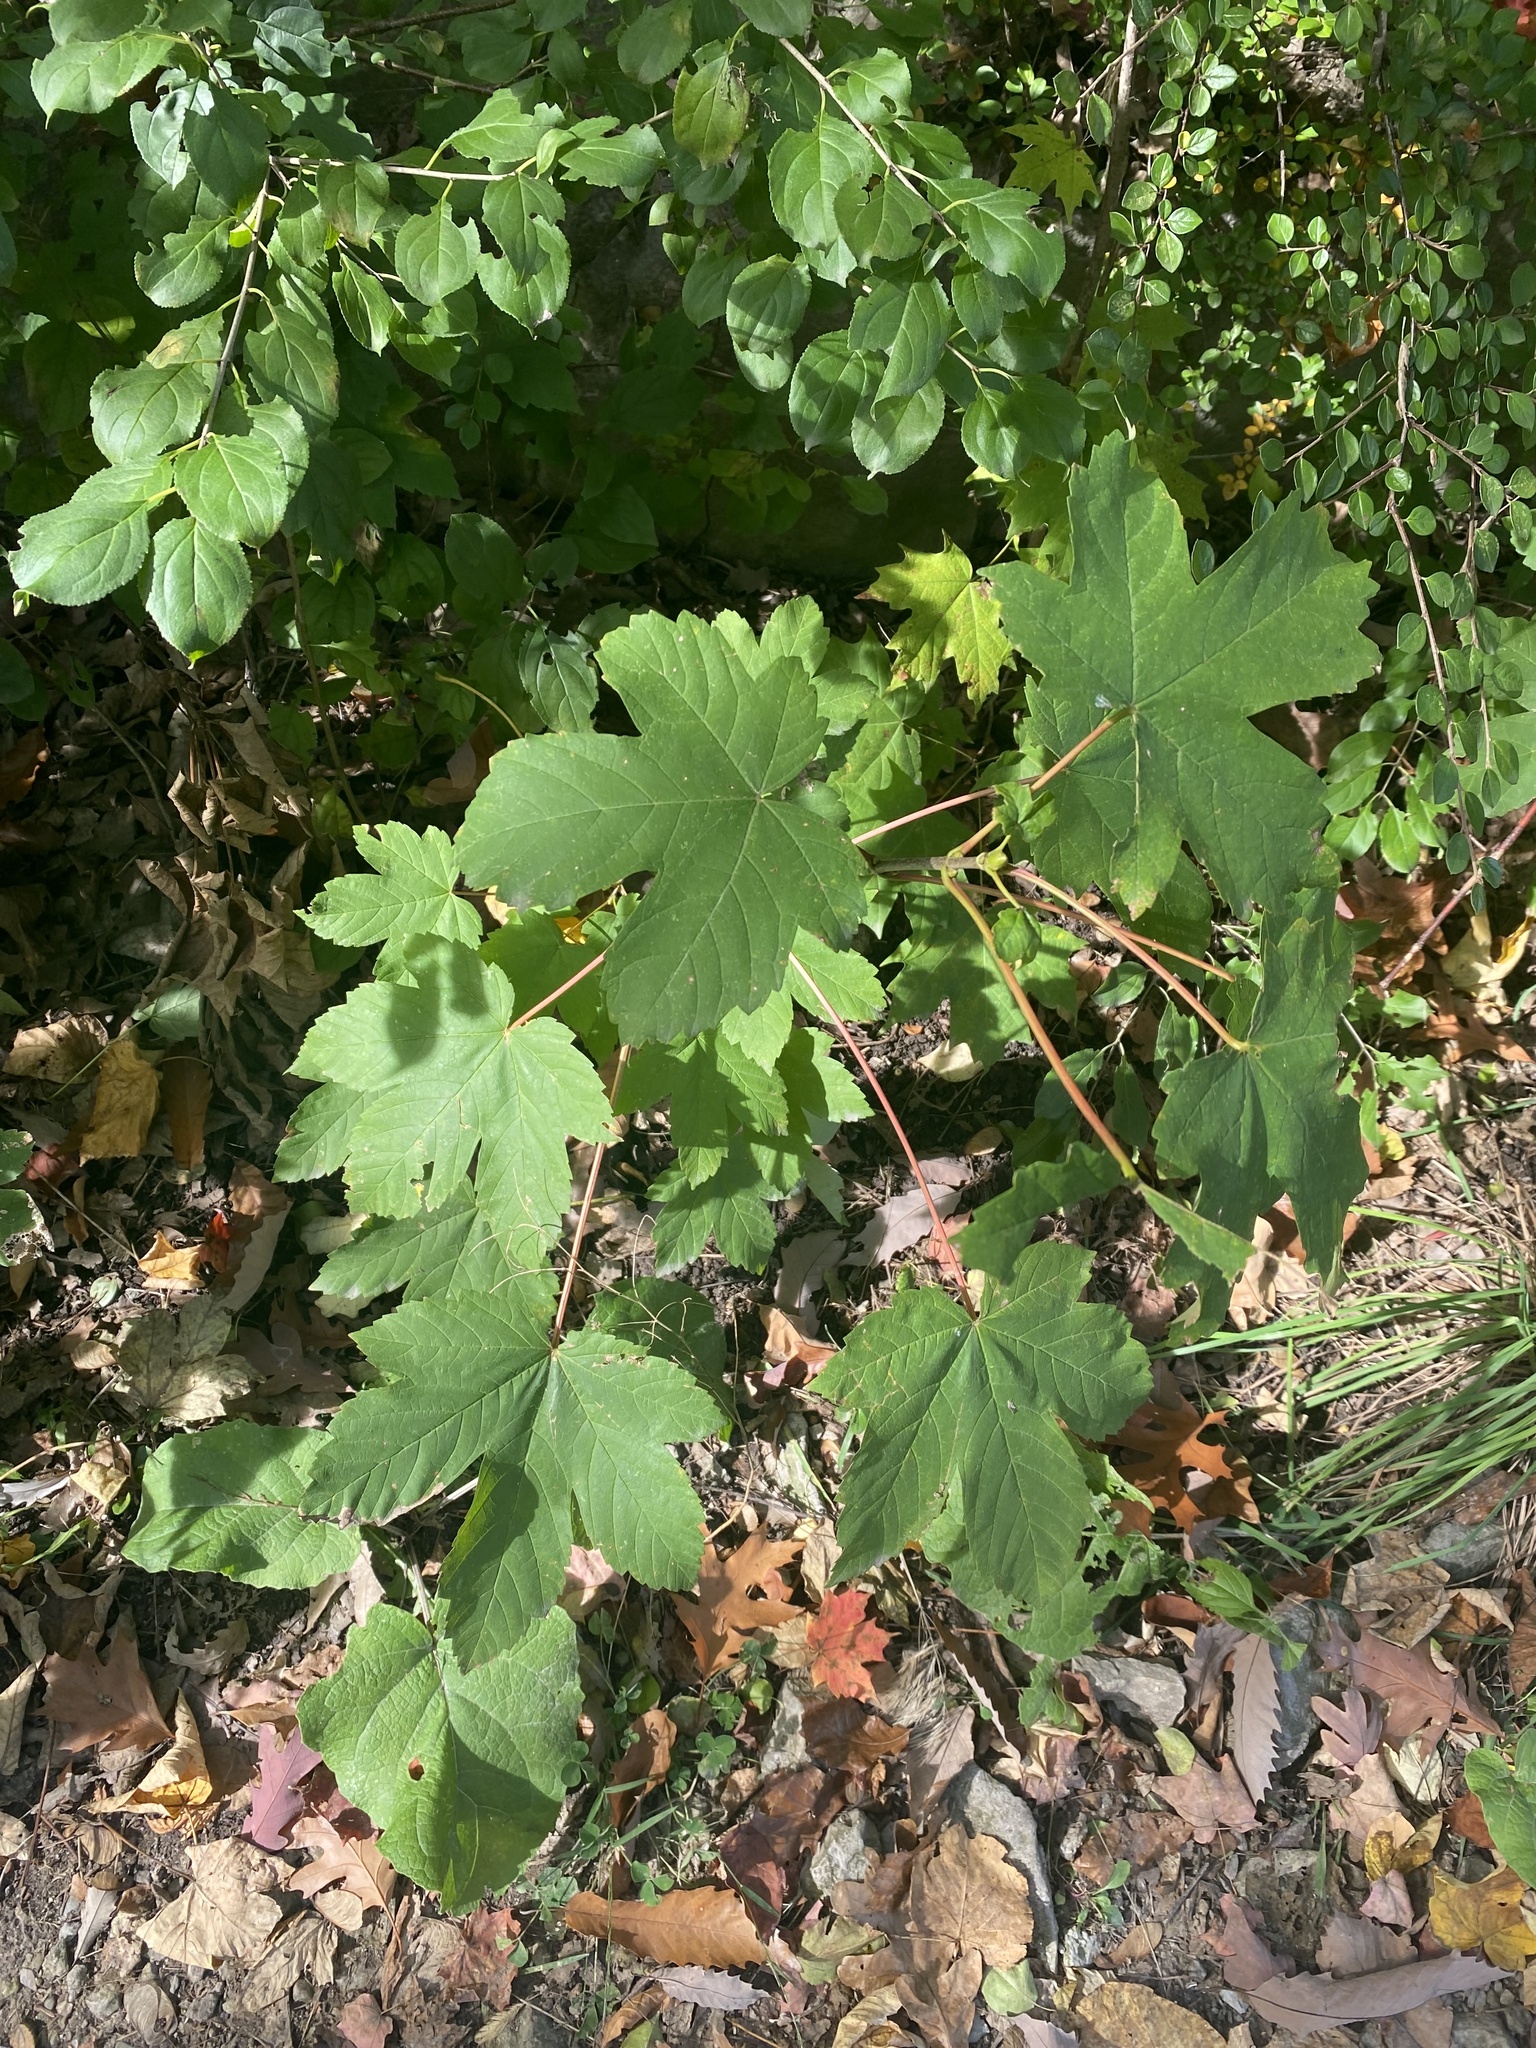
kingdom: Plantae
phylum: Tracheophyta
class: Magnoliopsida
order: Sapindales
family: Sapindaceae
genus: Acer
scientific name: Acer pseudoplatanus
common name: Sycamore
